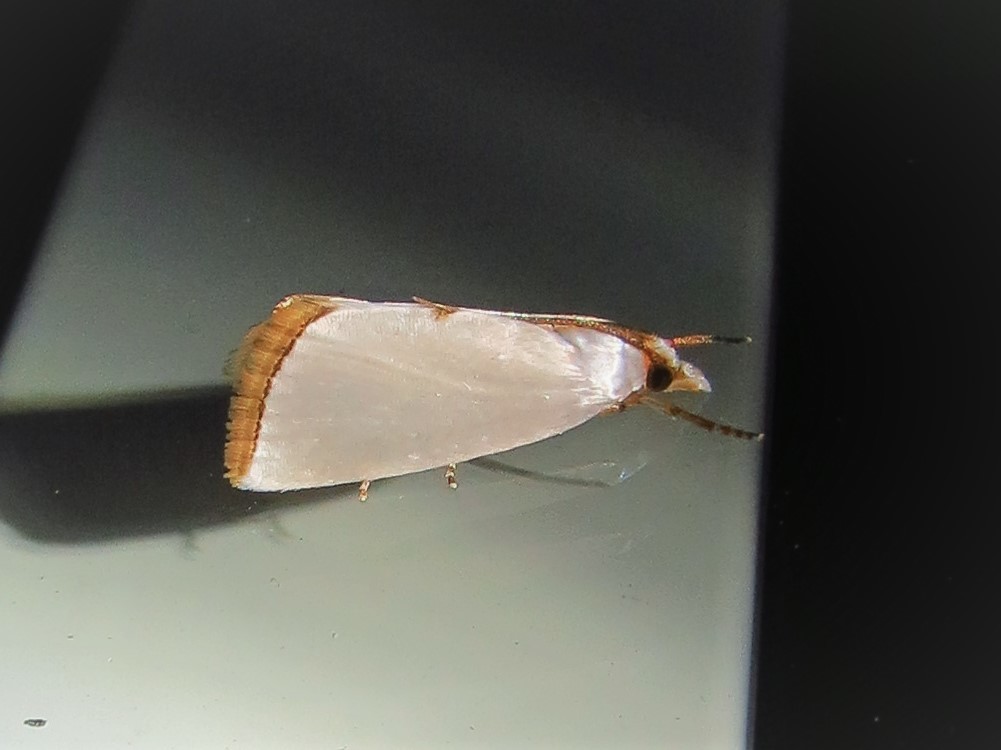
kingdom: Animalia
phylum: Arthropoda
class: Insecta
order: Lepidoptera
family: Crambidae
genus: Argyria
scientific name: Argyria nivalis
